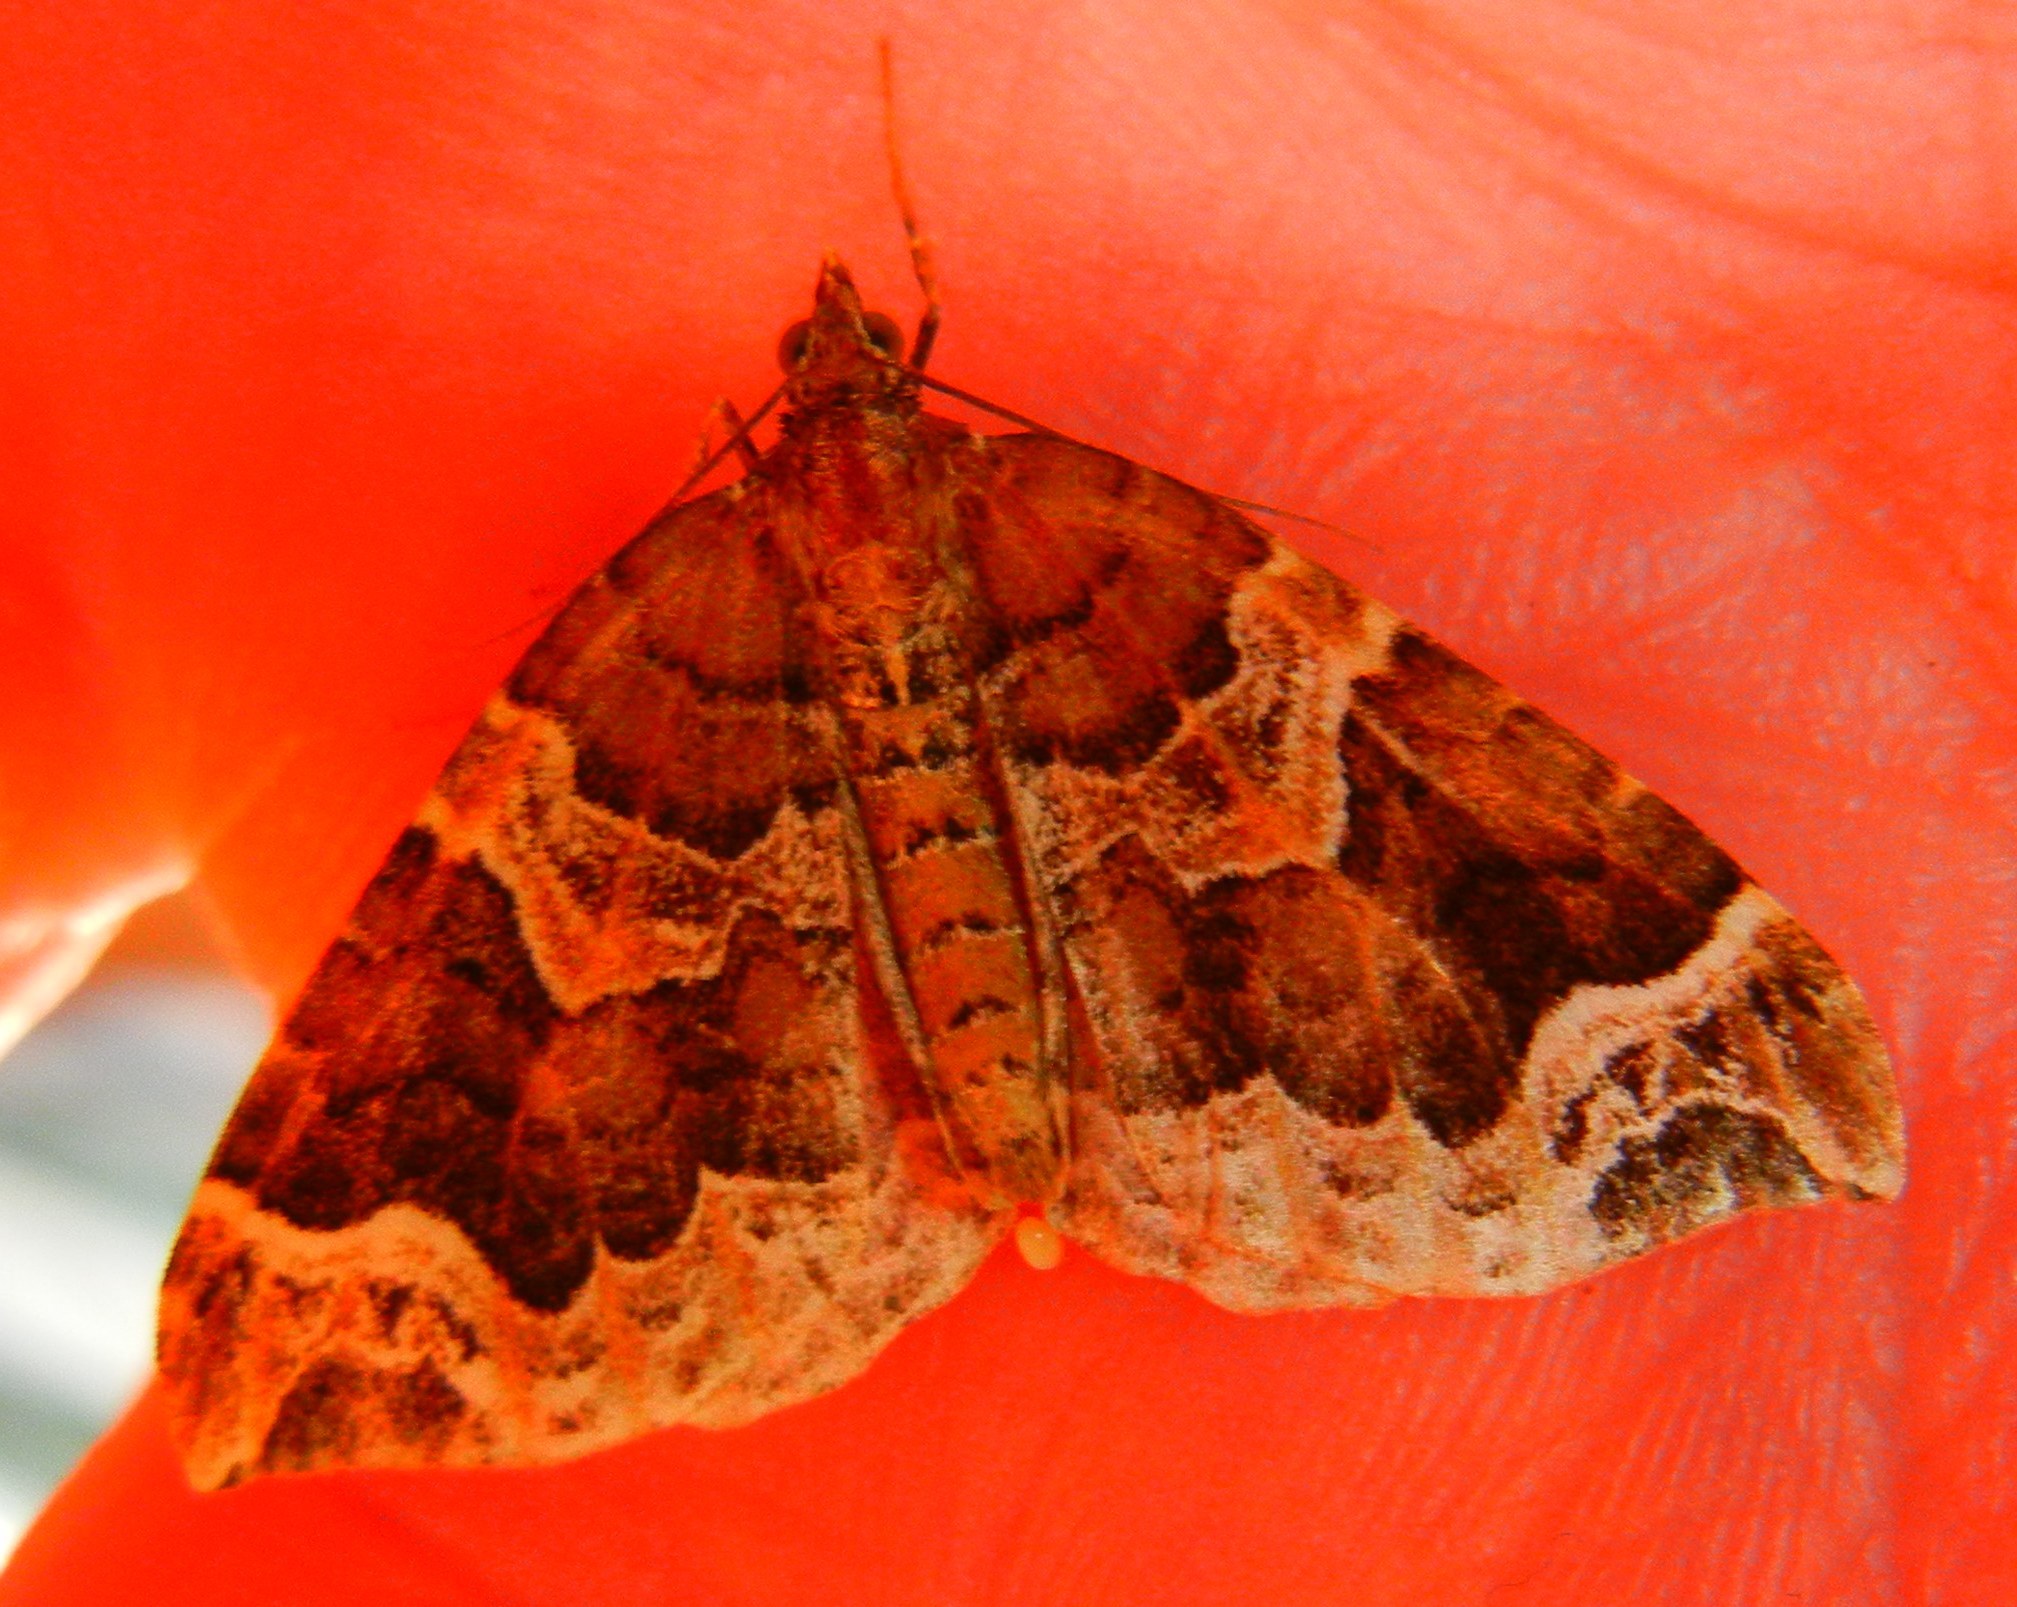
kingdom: Animalia
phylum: Arthropoda
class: Insecta
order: Lepidoptera
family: Geometridae
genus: Eulithis
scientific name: Eulithis prunata
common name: Phoenix
